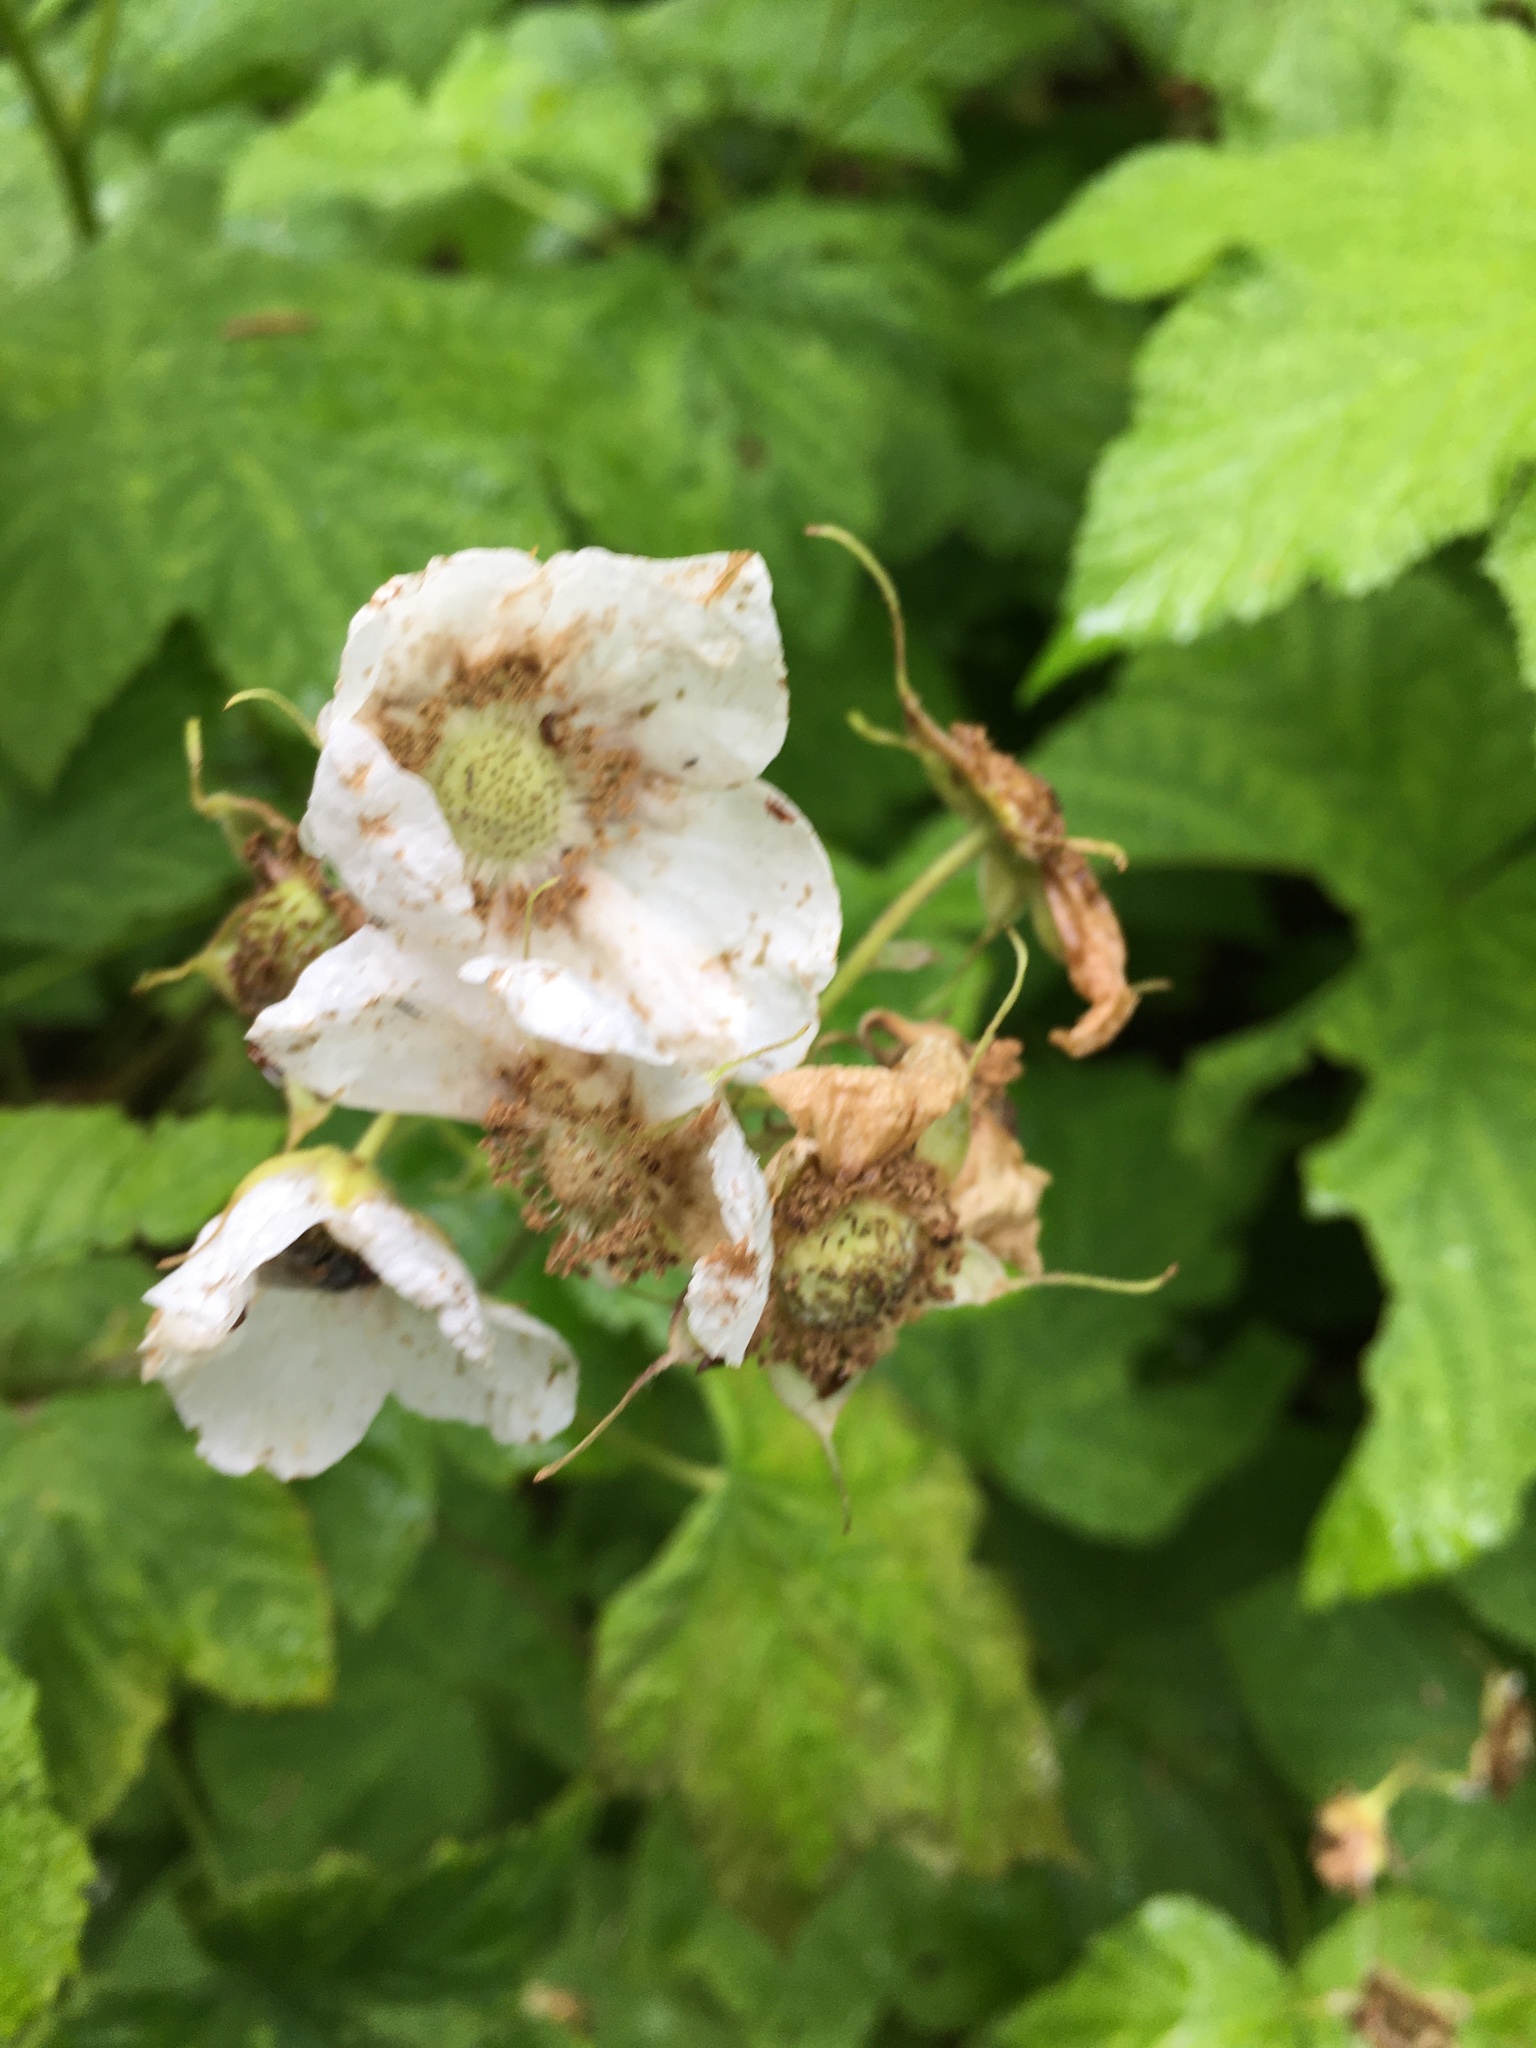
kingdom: Plantae
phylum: Tracheophyta
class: Magnoliopsida
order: Rosales
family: Rosaceae
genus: Rubus
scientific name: Rubus parviflorus
